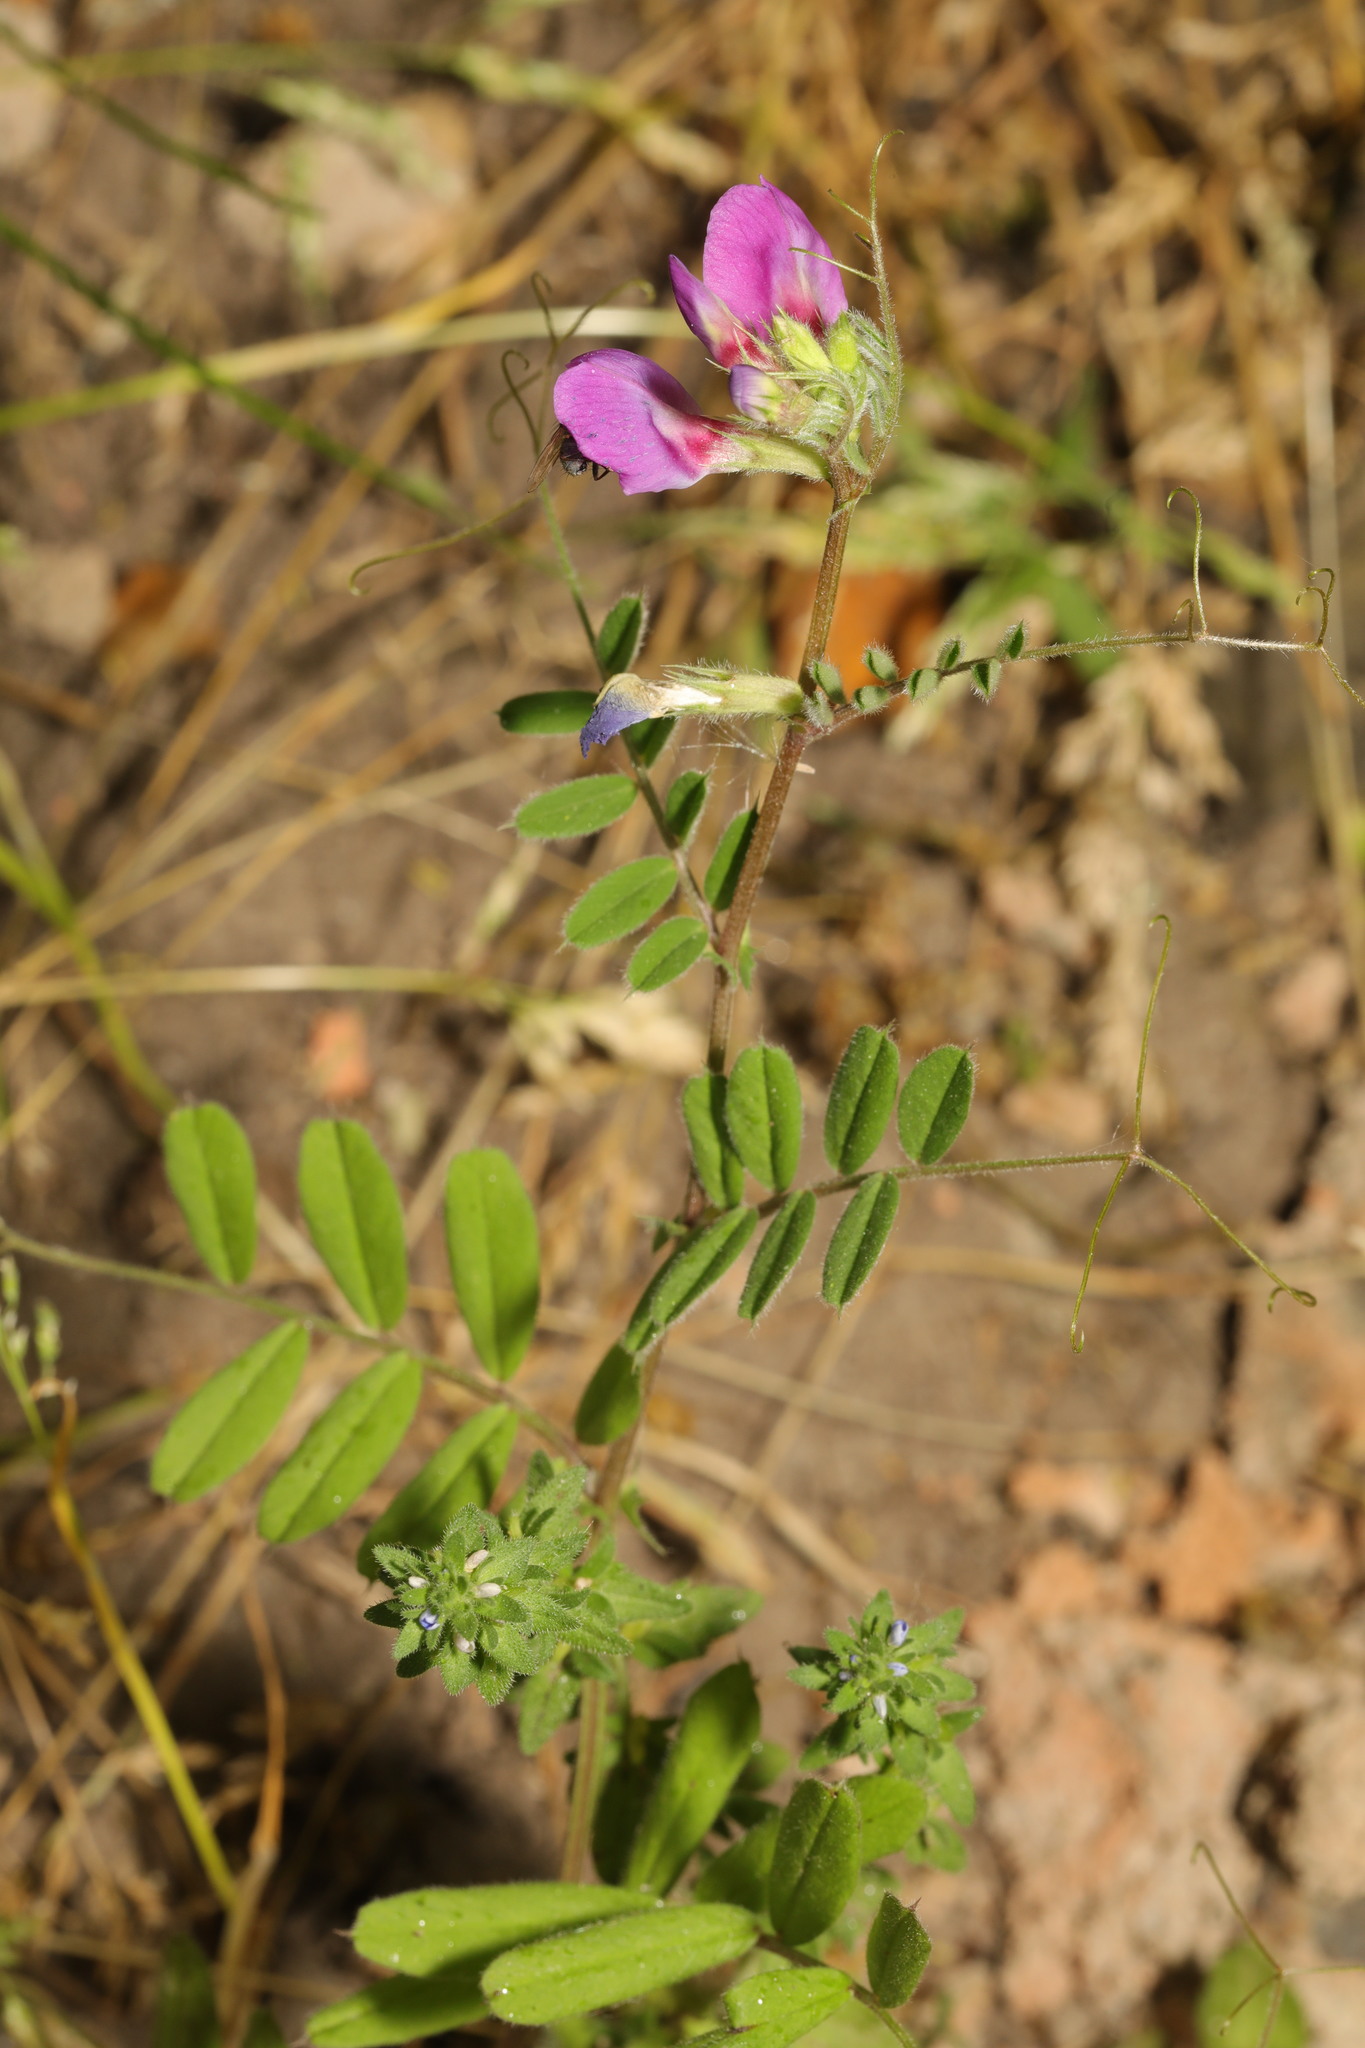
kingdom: Plantae
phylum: Tracheophyta
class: Magnoliopsida
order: Fabales
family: Fabaceae
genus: Vicia
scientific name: Vicia sativa
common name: Garden vetch
